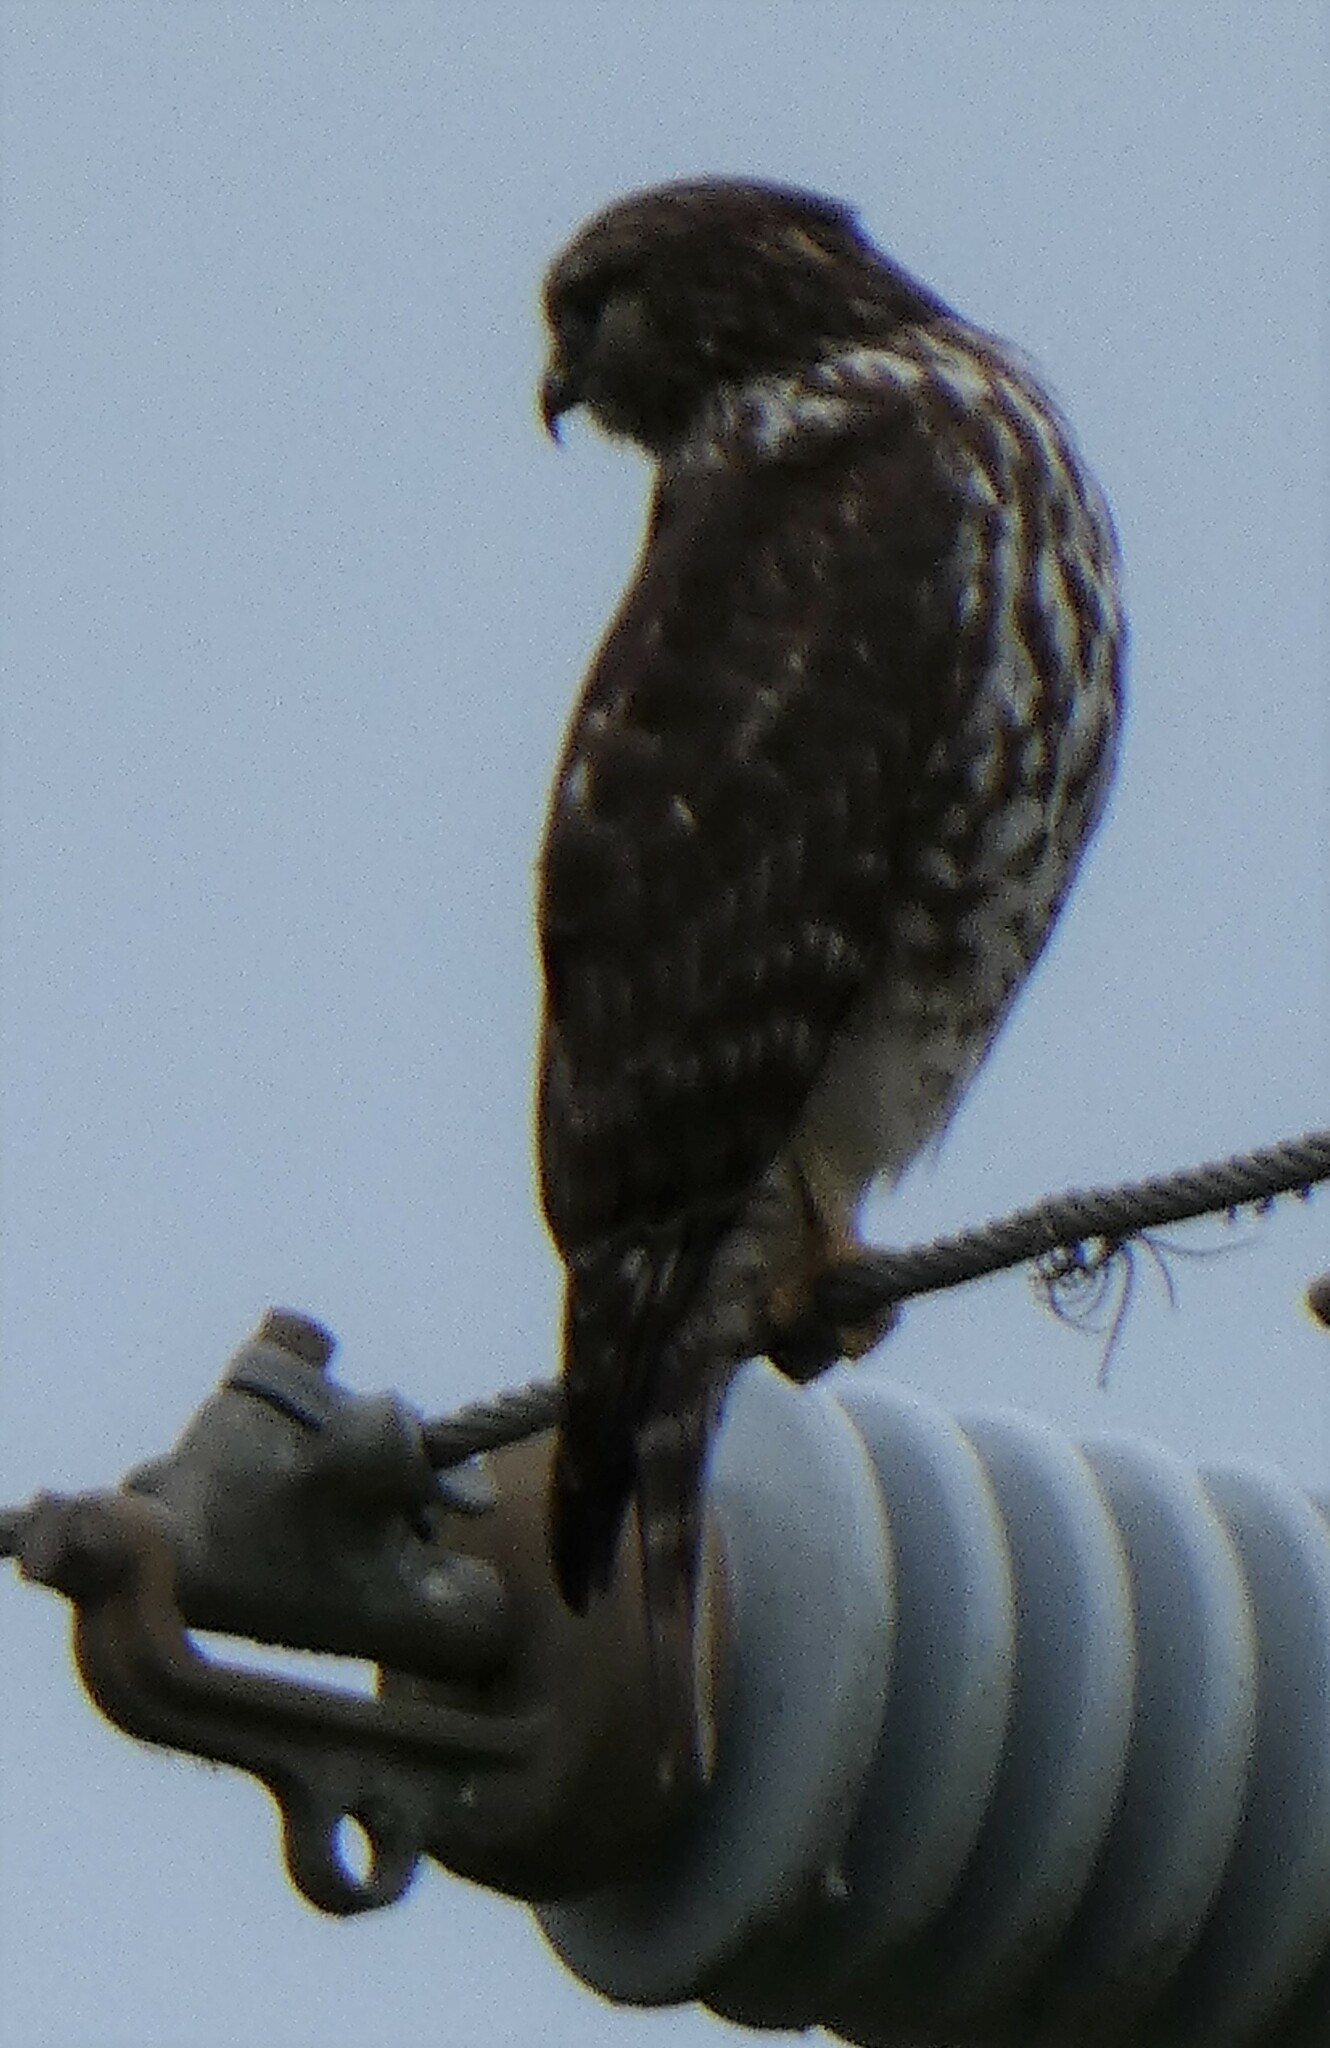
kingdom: Animalia
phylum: Chordata
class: Aves
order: Accipitriformes
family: Accipitridae
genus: Buteo
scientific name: Buteo lineatus
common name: Red-shouldered hawk
